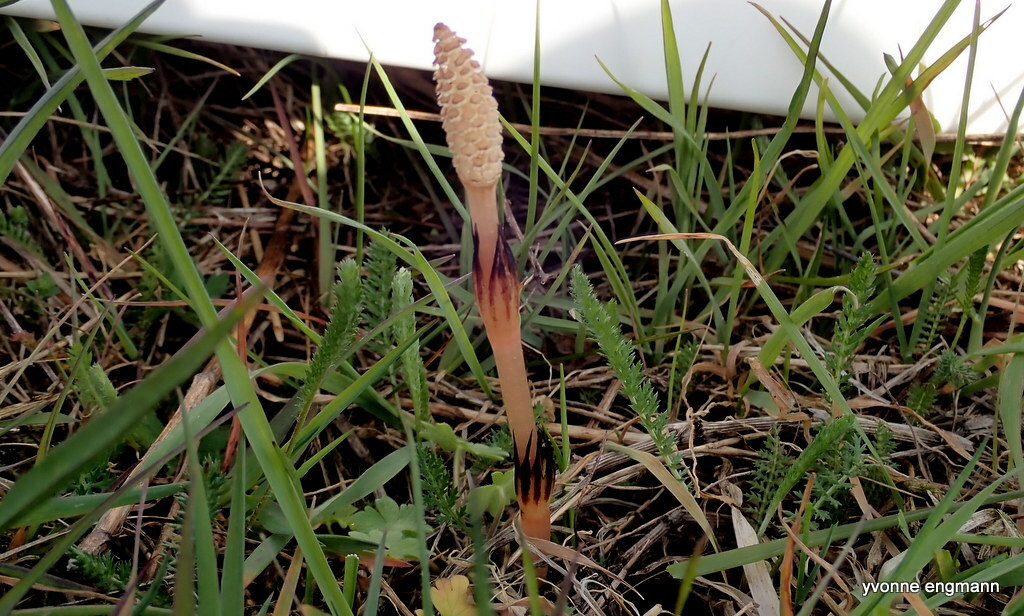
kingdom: Plantae
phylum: Tracheophyta
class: Polypodiopsida
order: Equisetales
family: Equisetaceae
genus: Equisetum
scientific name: Equisetum arvense
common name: Field horsetail
